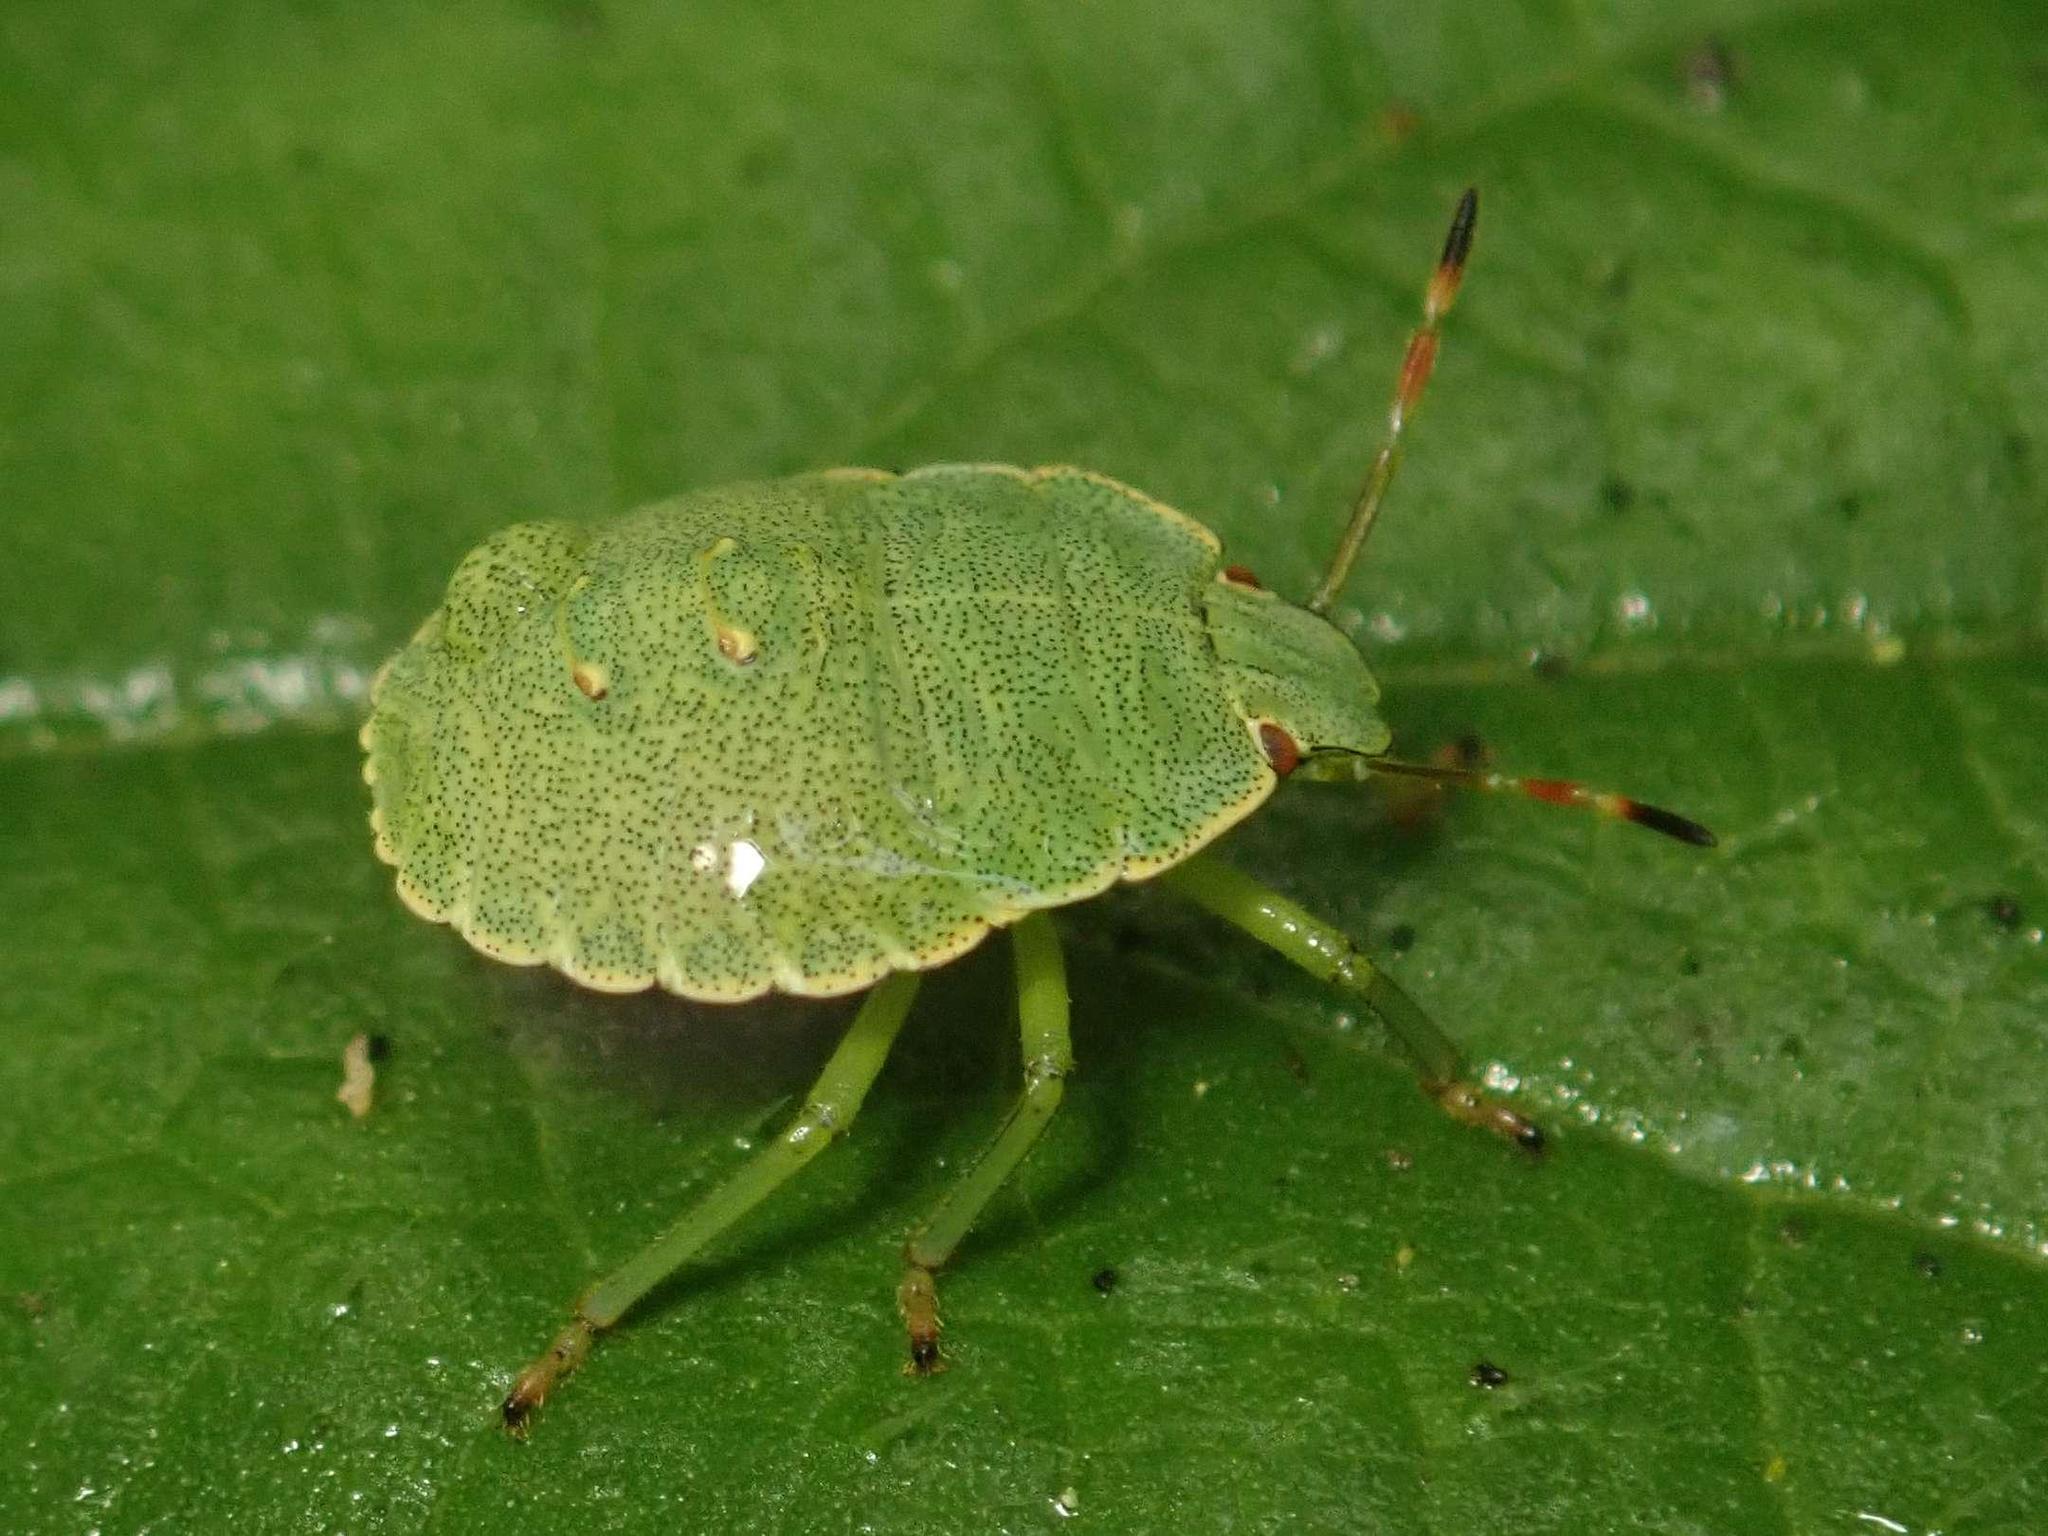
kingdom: Animalia
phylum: Arthropoda
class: Insecta
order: Hemiptera
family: Pentatomidae
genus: Palomena
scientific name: Palomena prasina
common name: Green shieldbug
